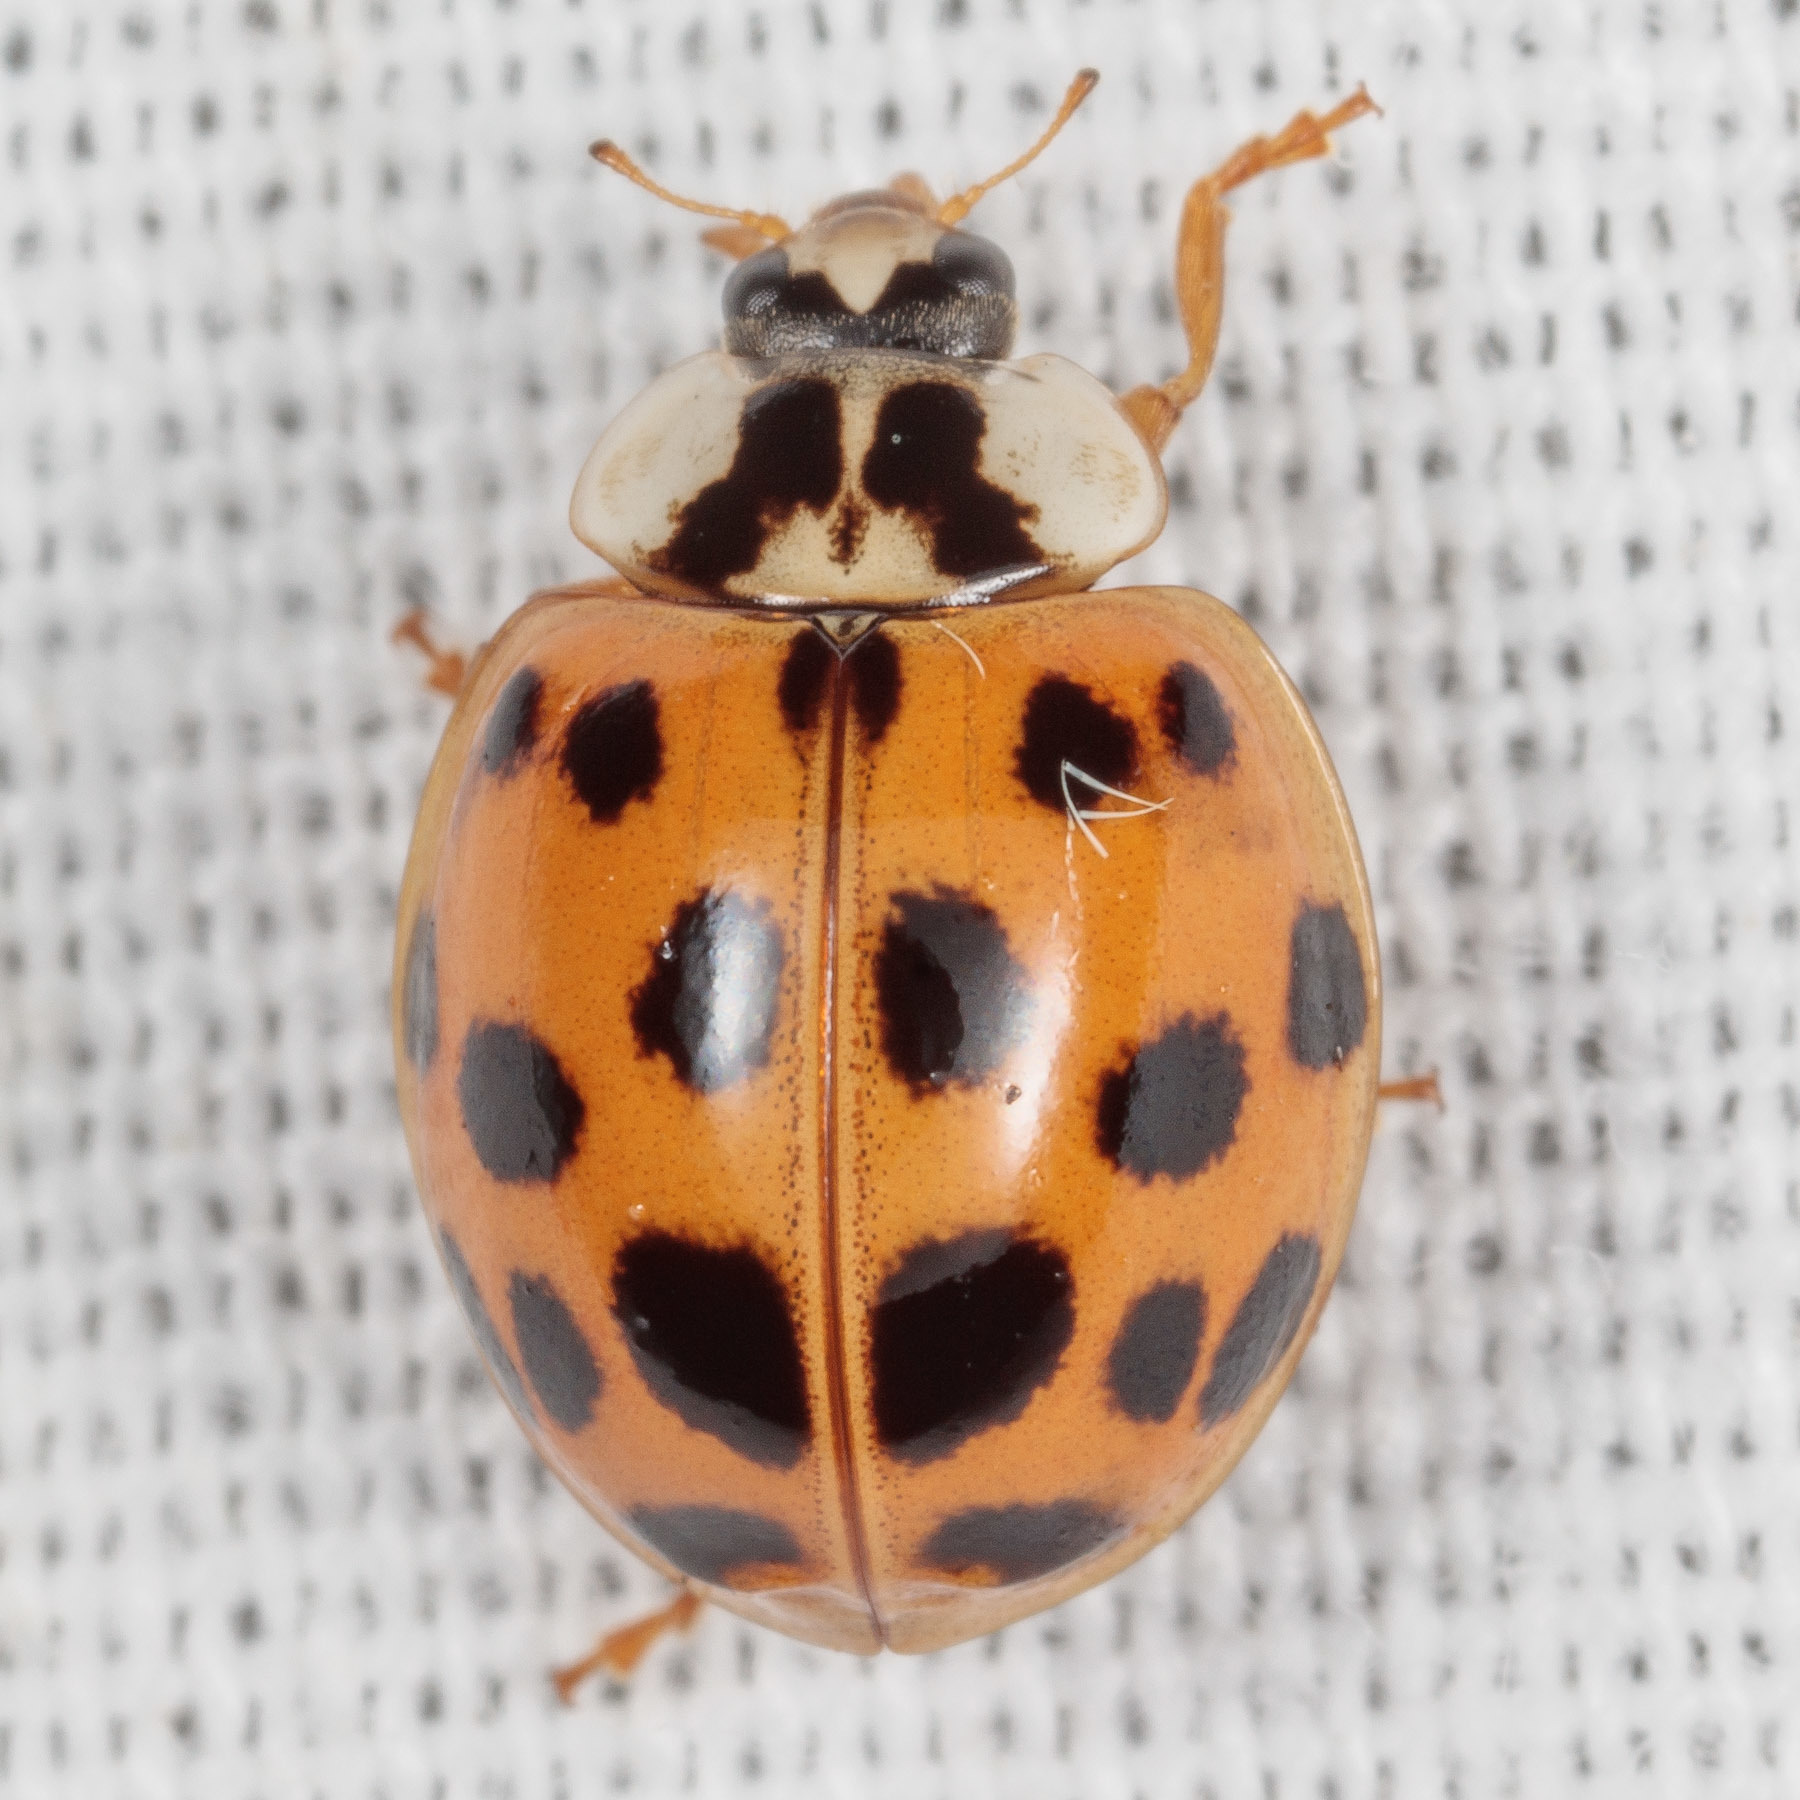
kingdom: Animalia
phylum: Arthropoda
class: Insecta
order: Coleoptera
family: Coccinellidae
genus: Harmonia
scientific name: Harmonia axyridis
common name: Harlequin ladybird
